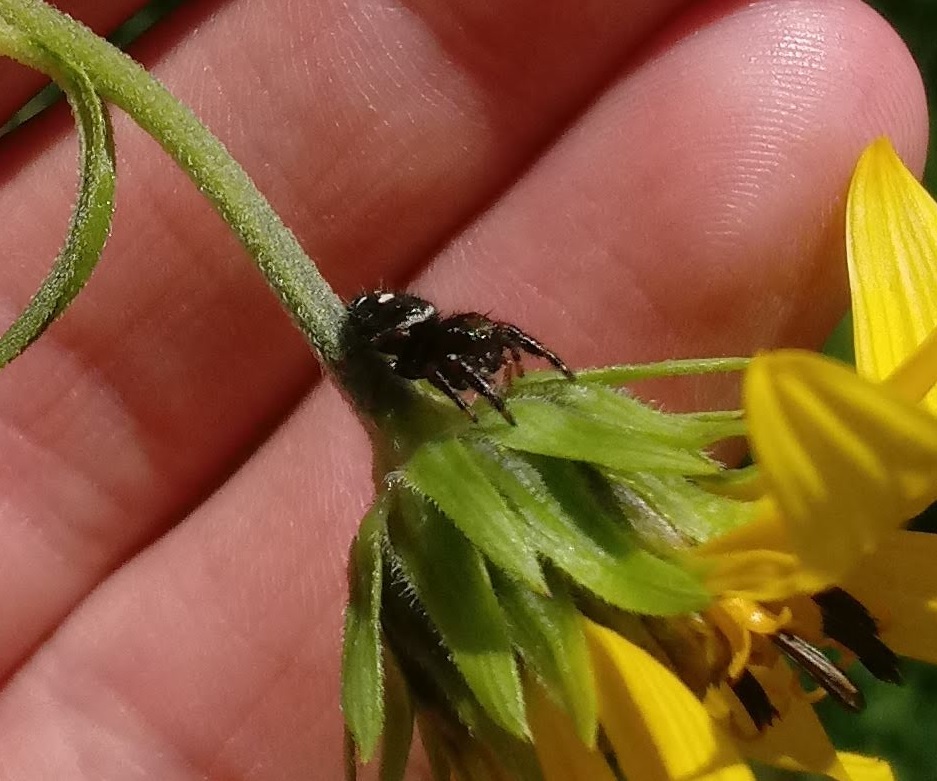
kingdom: Animalia
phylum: Arthropoda
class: Arachnida
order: Araneae
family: Salticidae
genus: Phidippus
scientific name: Phidippus audax
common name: Bold jumper
